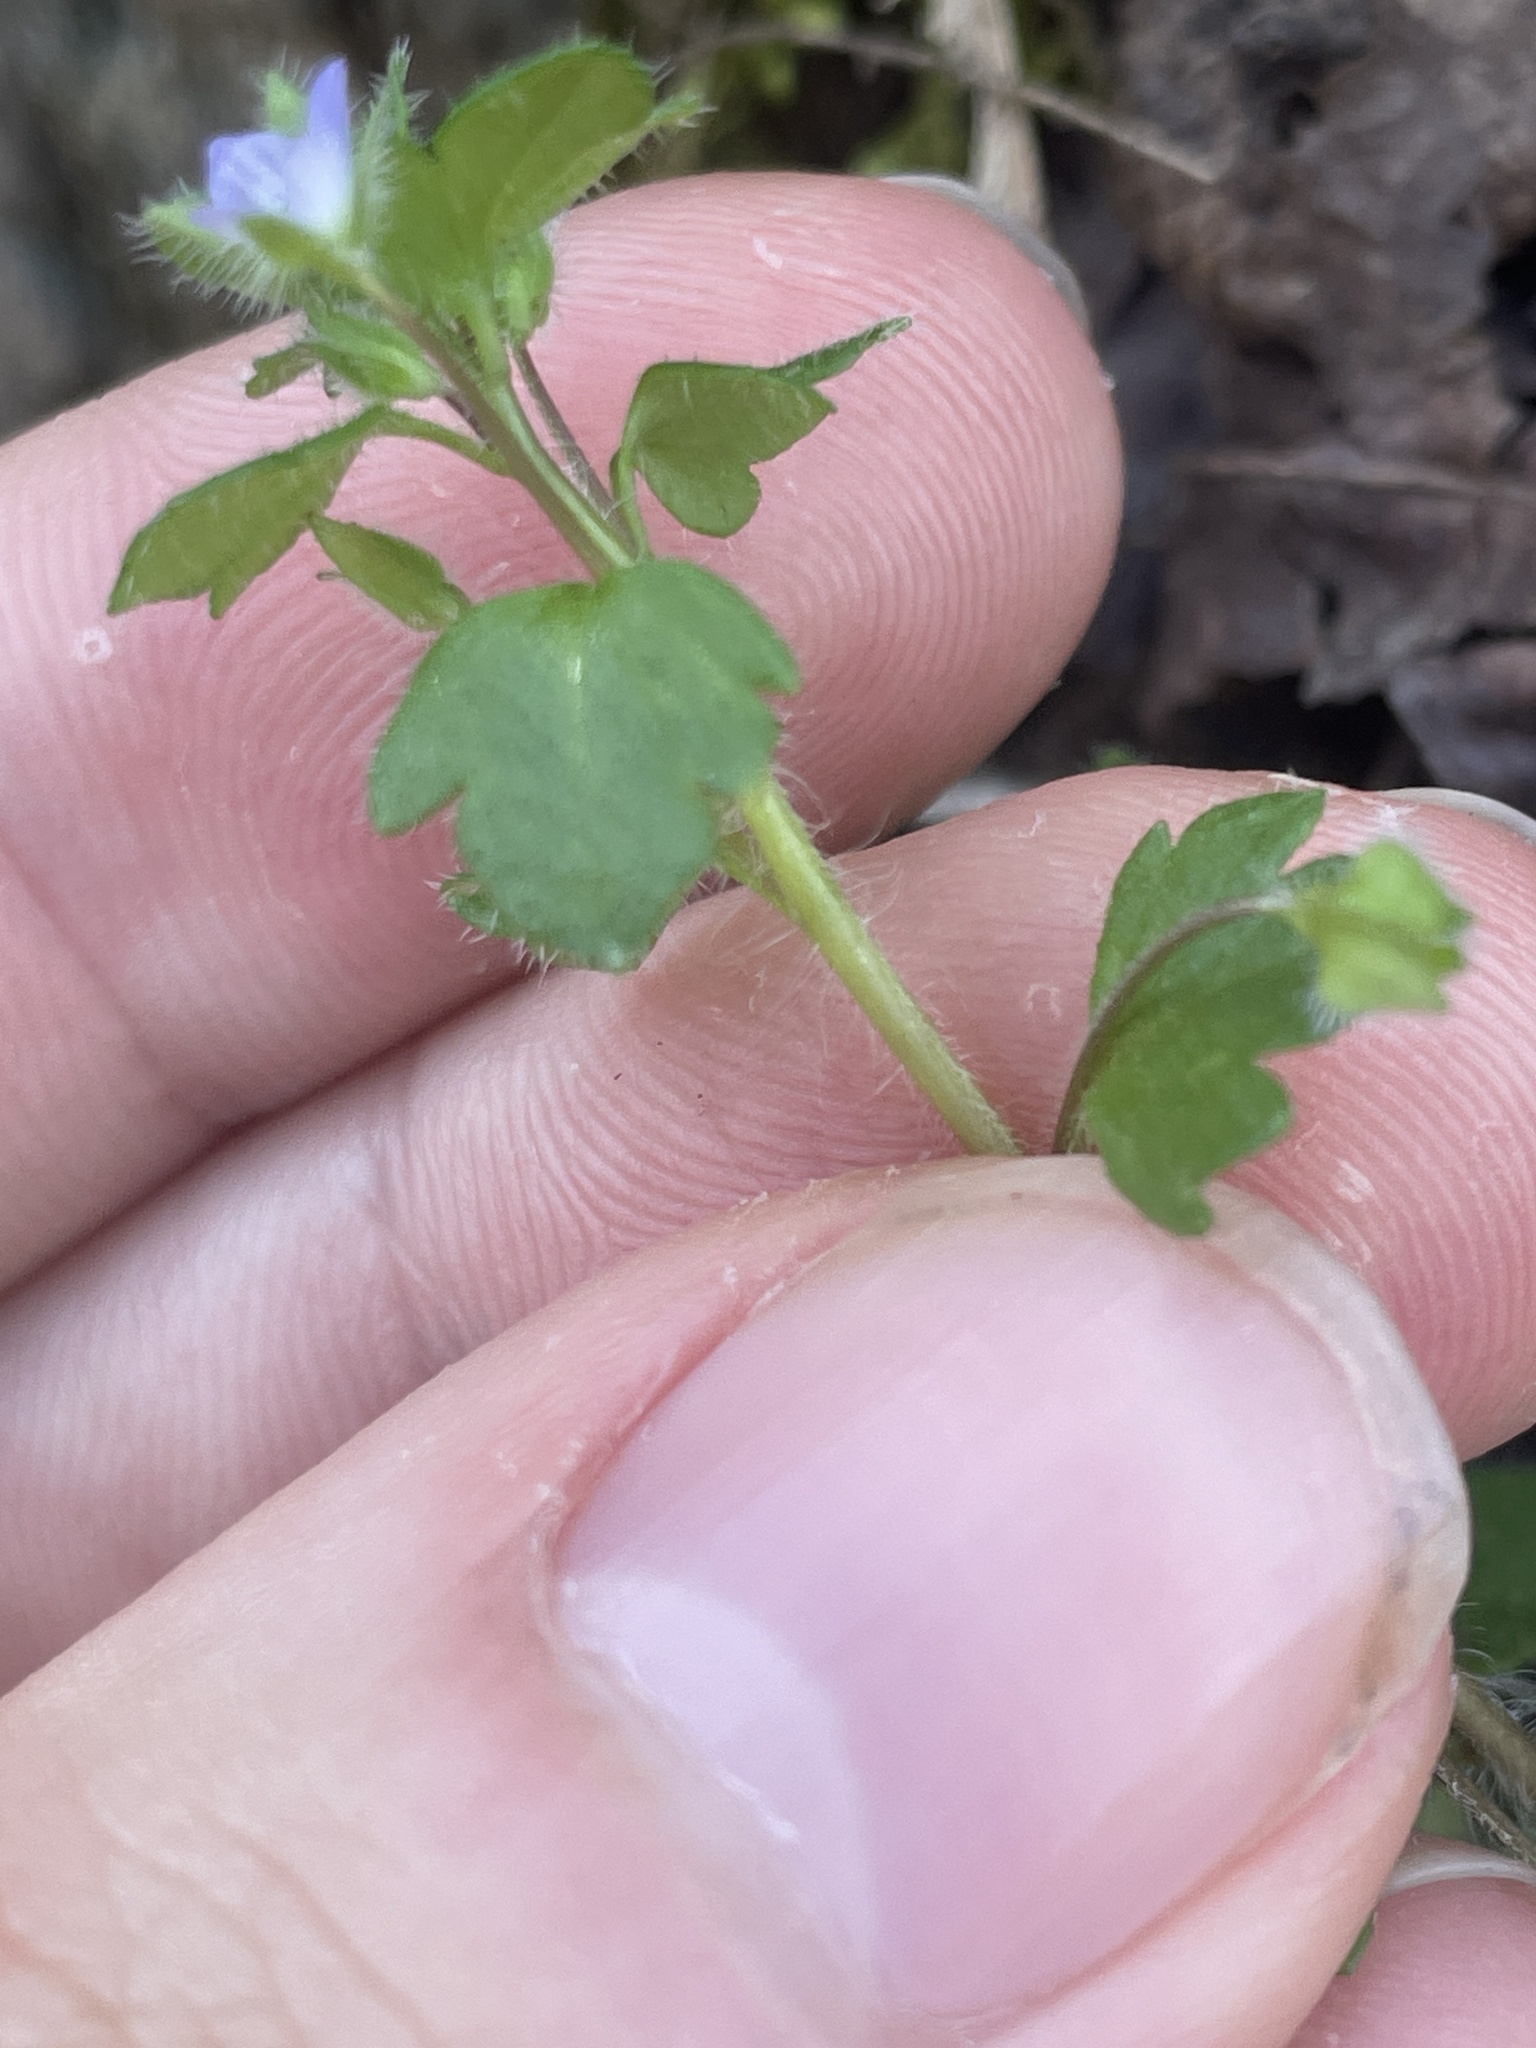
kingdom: Plantae
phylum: Tracheophyta
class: Magnoliopsida
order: Lamiales
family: Plantaginaceae
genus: Veronica
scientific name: Veronica hederifolia
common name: Ivy-leaved speedwell
